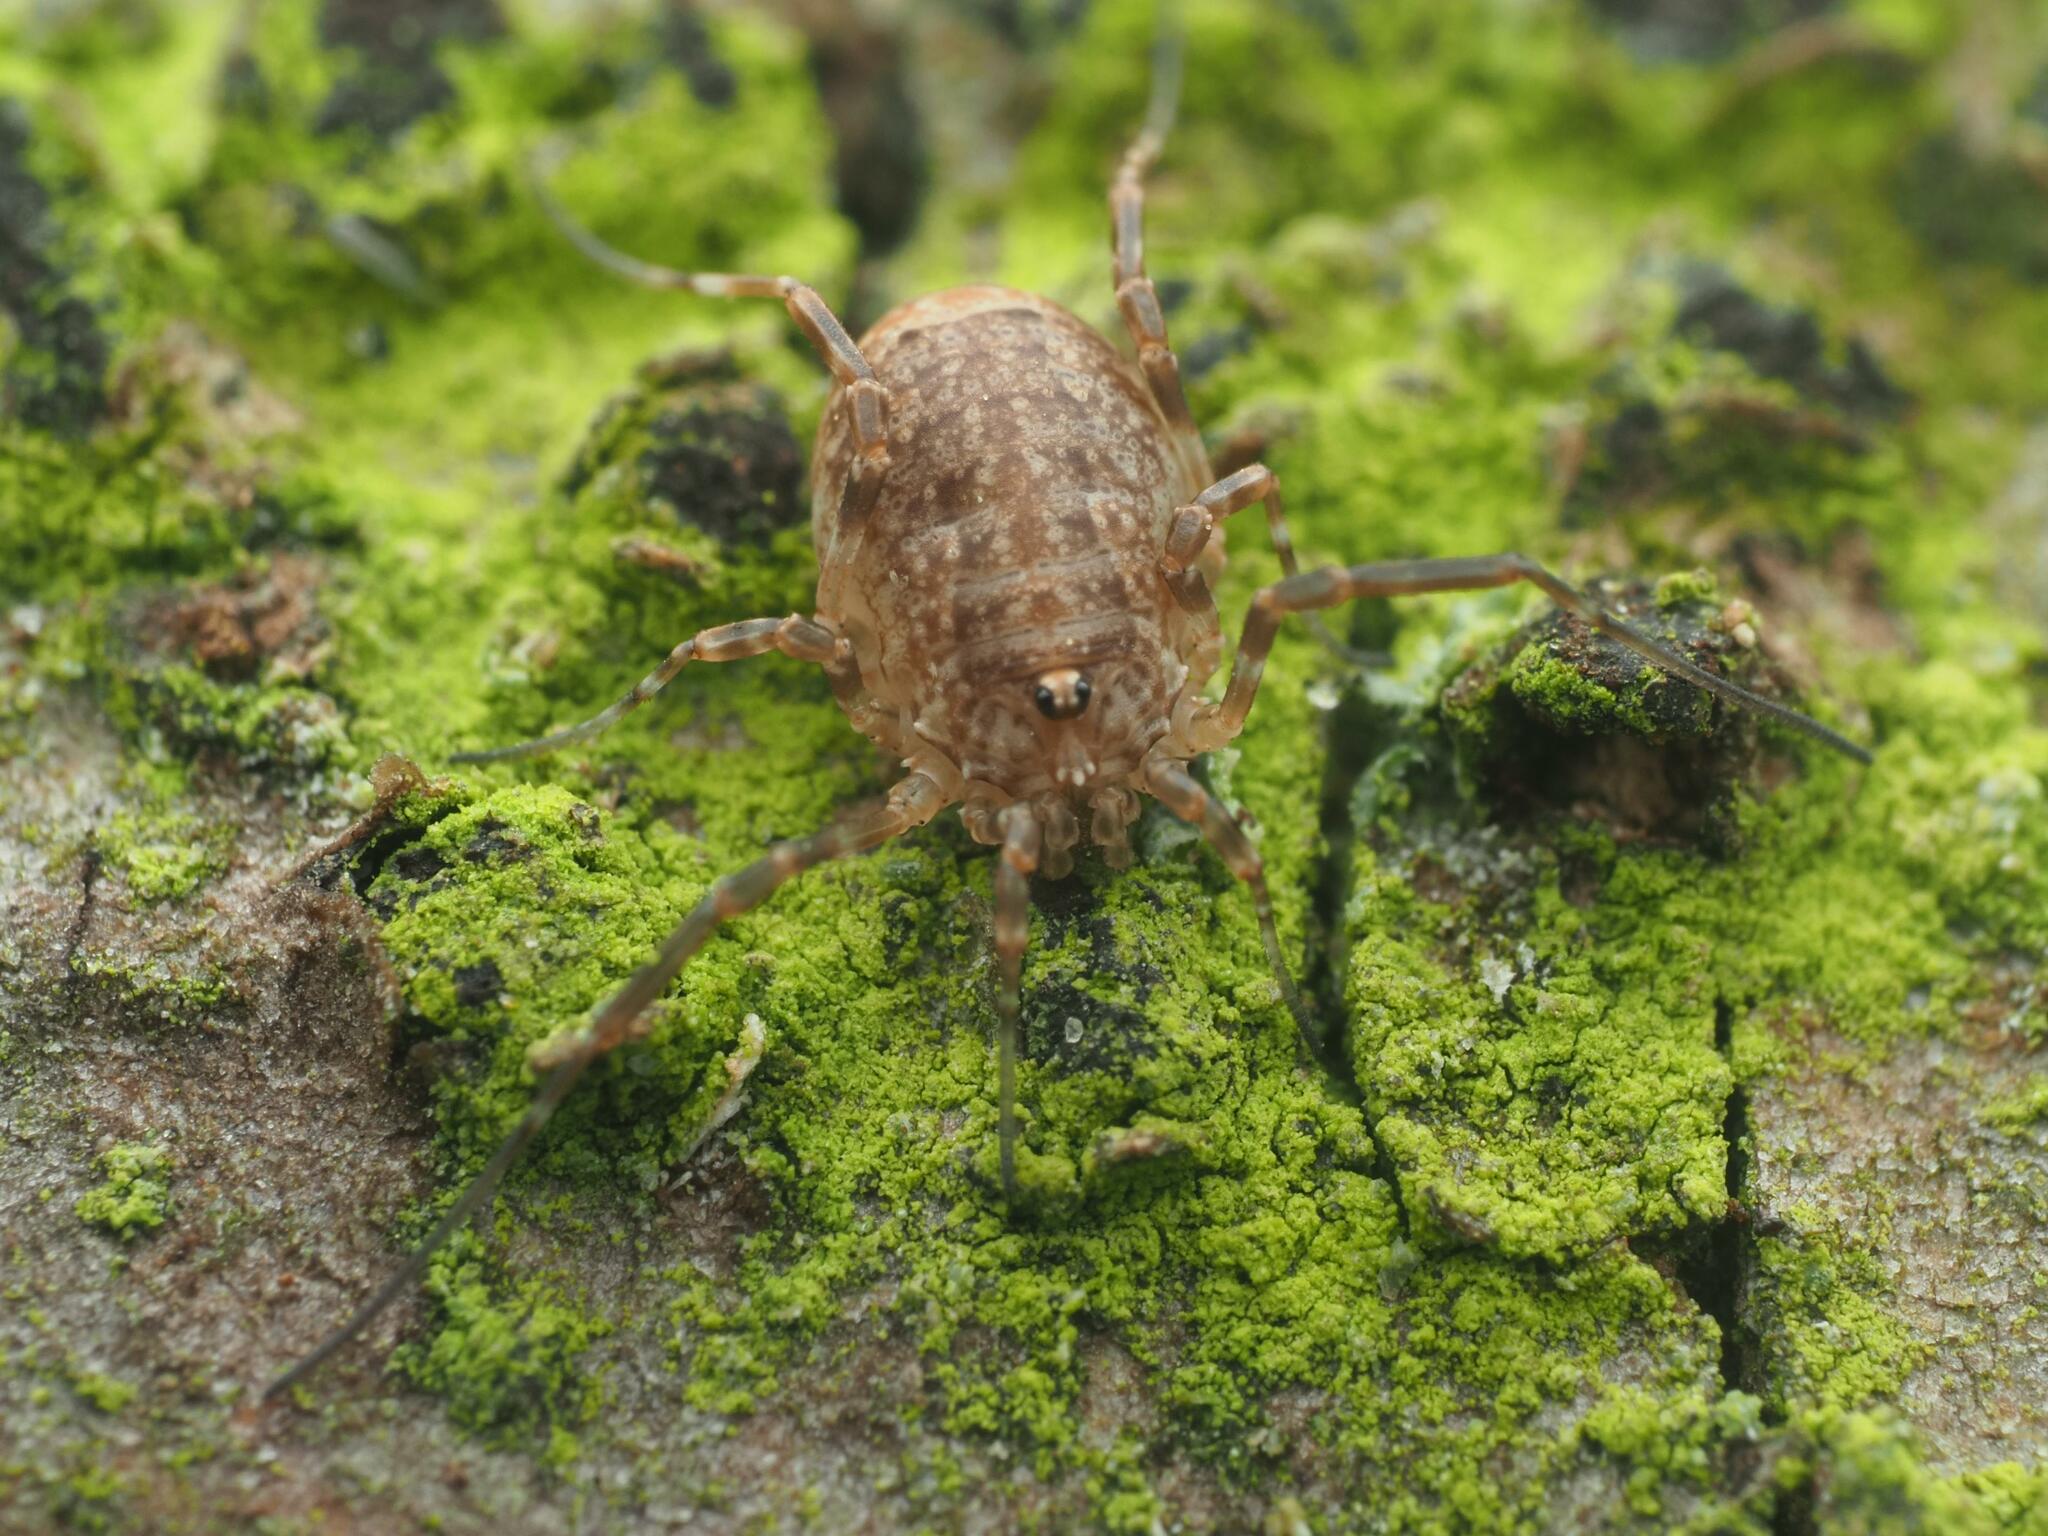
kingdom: Animalia
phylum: Arthropoda
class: Arachnida
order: Opiliones
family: Phalangiidae
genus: Odiellus
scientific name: Odiellus spinosus
